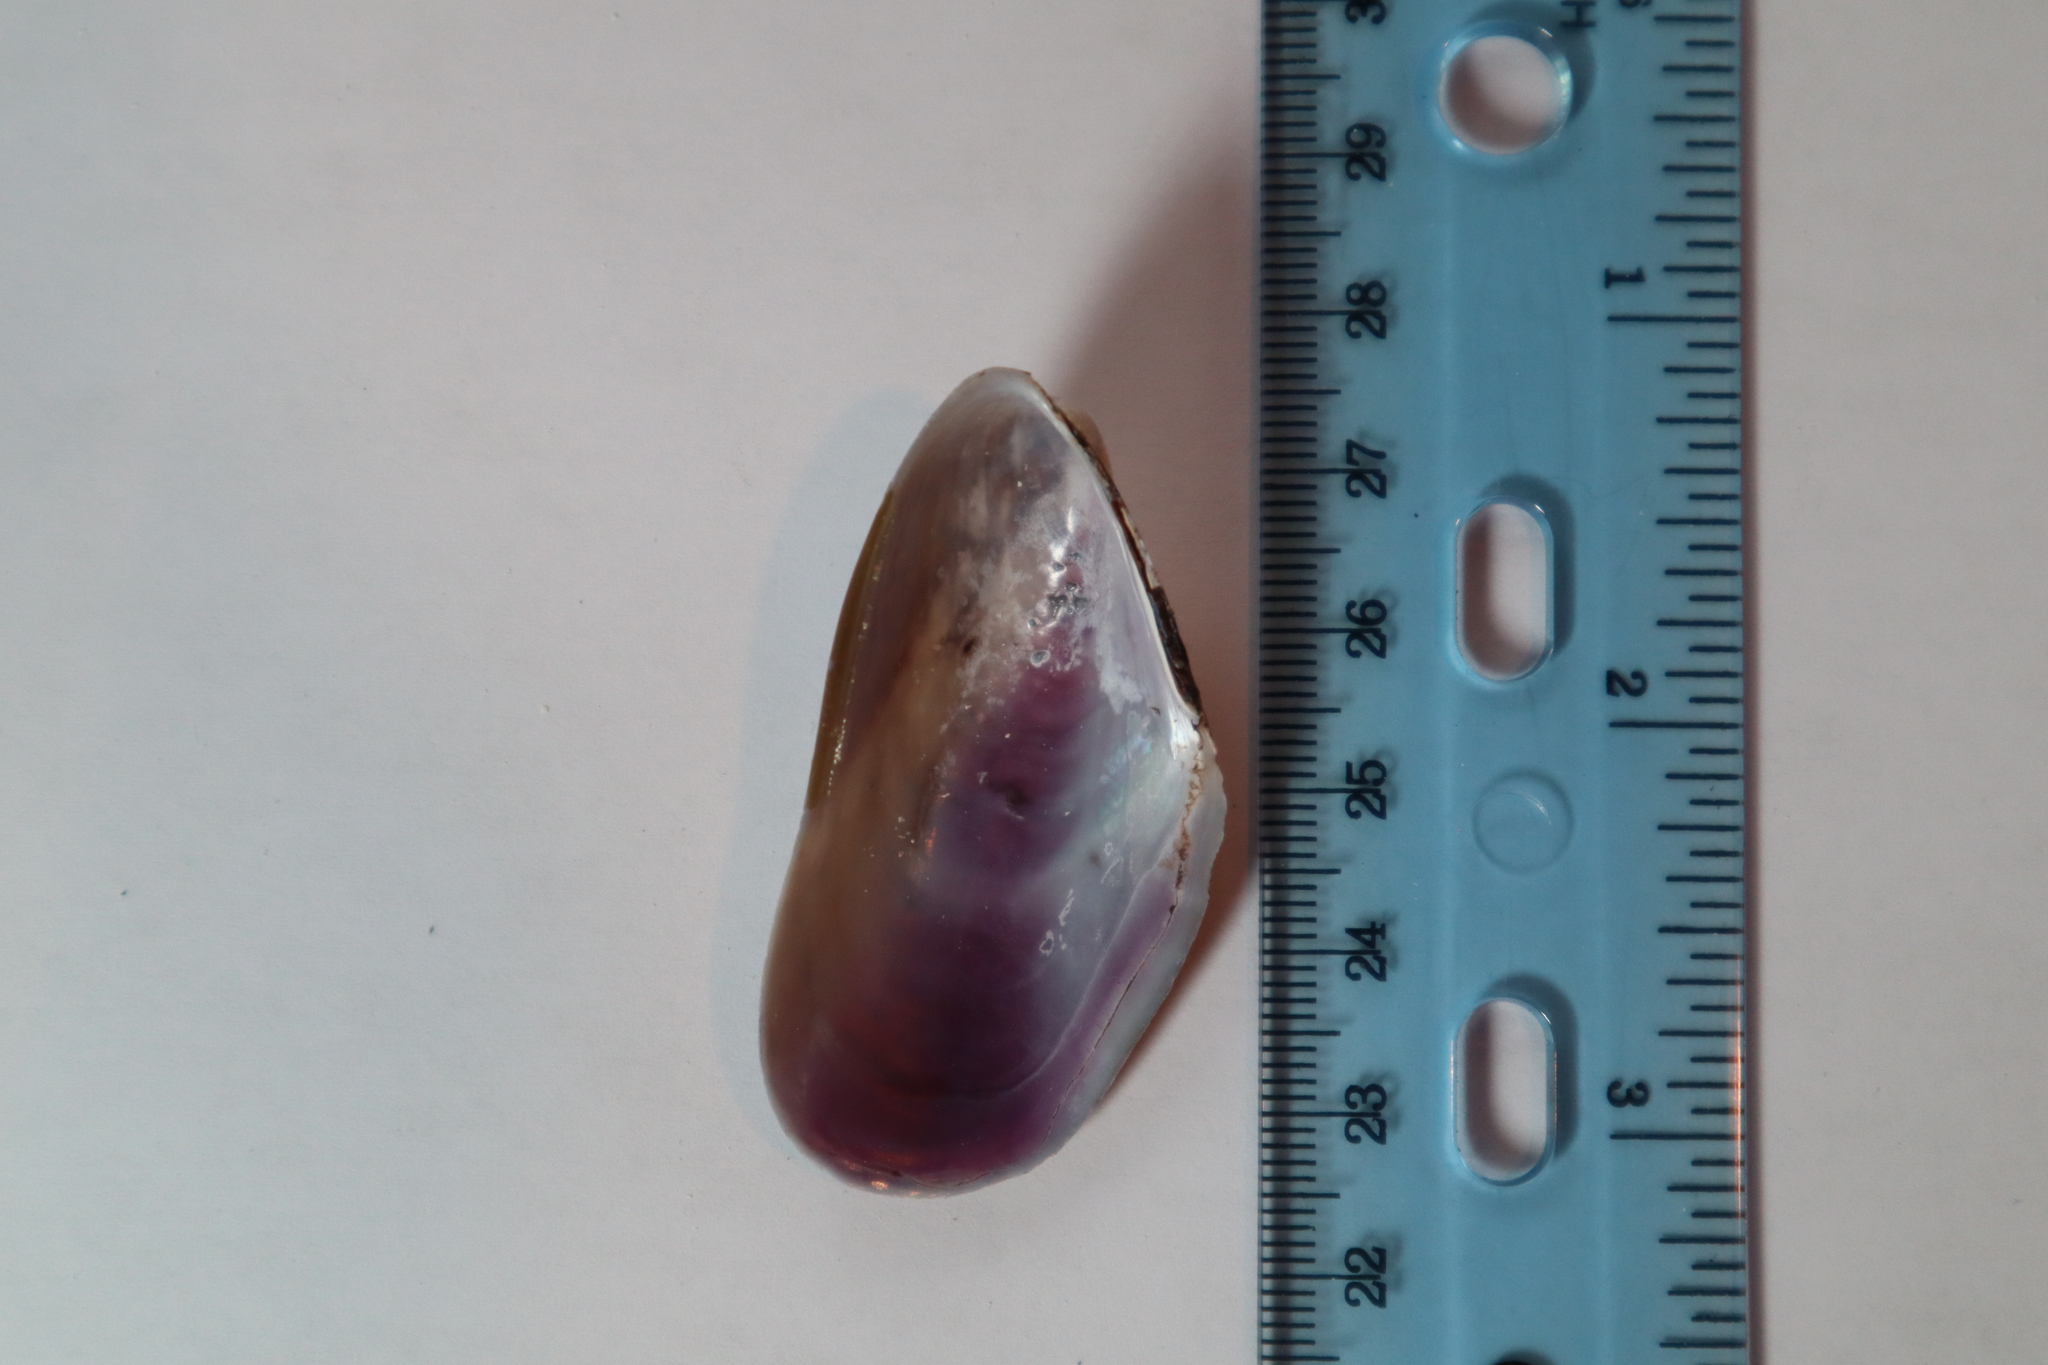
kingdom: Animalia
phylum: Mollusca
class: Bivalvia
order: Mytilida
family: Mytilidae
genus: Modiolus
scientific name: Modiolus americanus
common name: Tulip mussel
